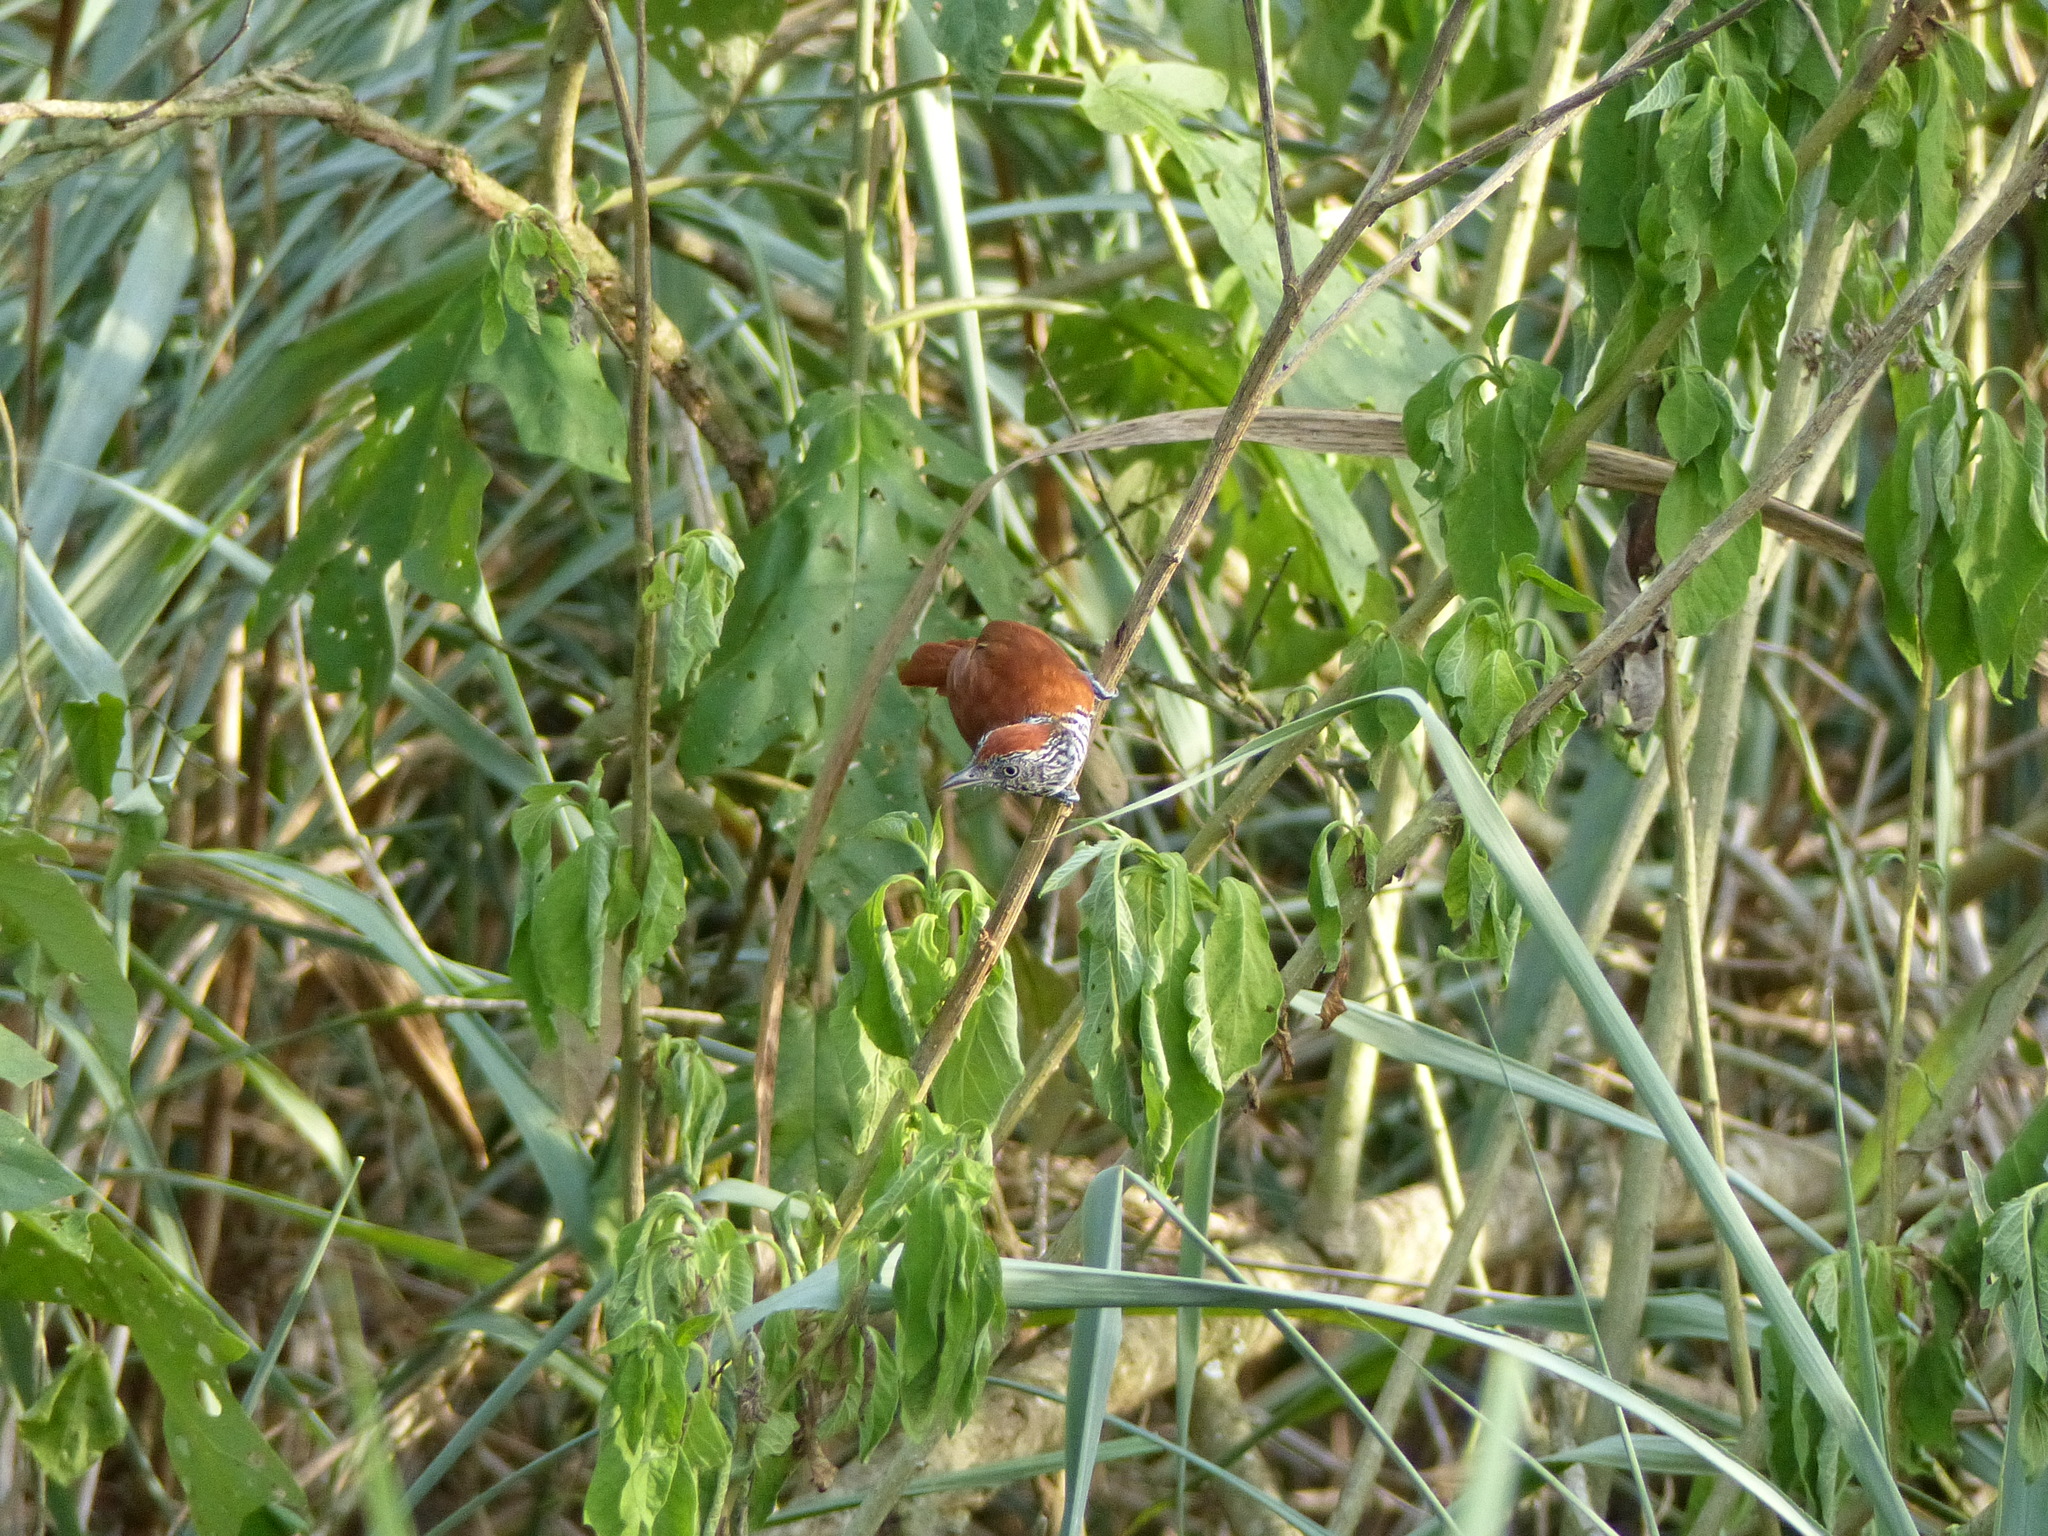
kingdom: Animalia
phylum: Chordata
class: Aves
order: Passeriformes
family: Thamnophilidae
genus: Thamnophilus
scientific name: Thamnophilus palliatus
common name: Chestnut-backed antshrike
